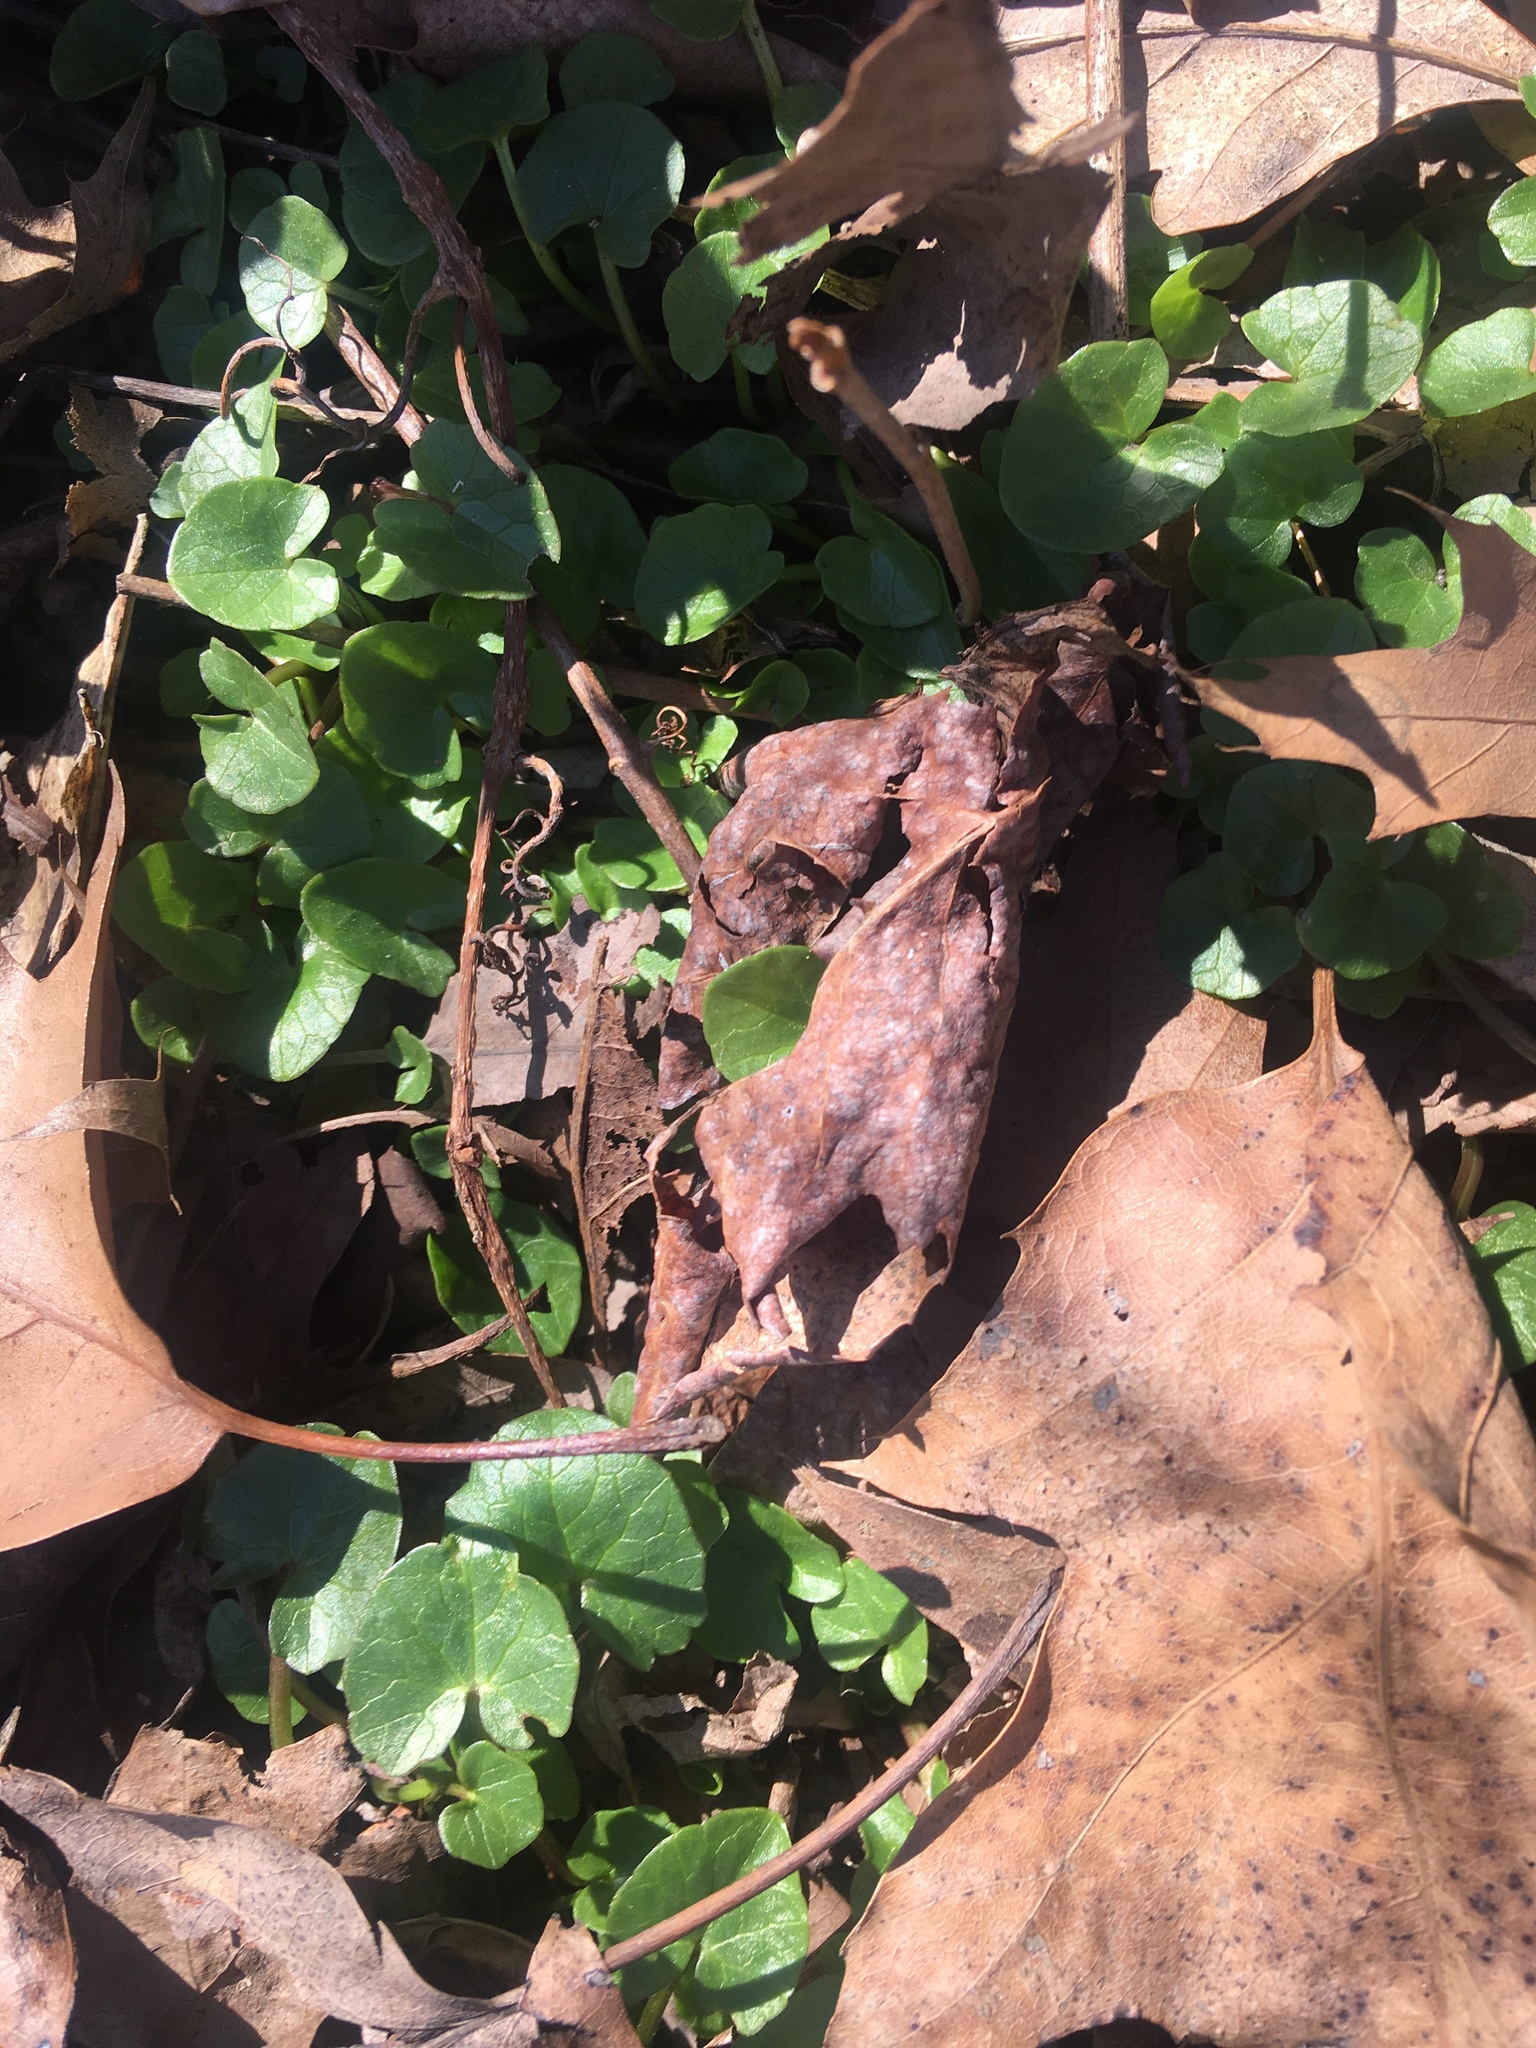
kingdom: Plantae
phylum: Tracheophyta
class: Magnoliopsida
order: Ranunculales
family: Ranunculaceae
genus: Ficaria
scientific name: Ficaria verna
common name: Lesser celandine
